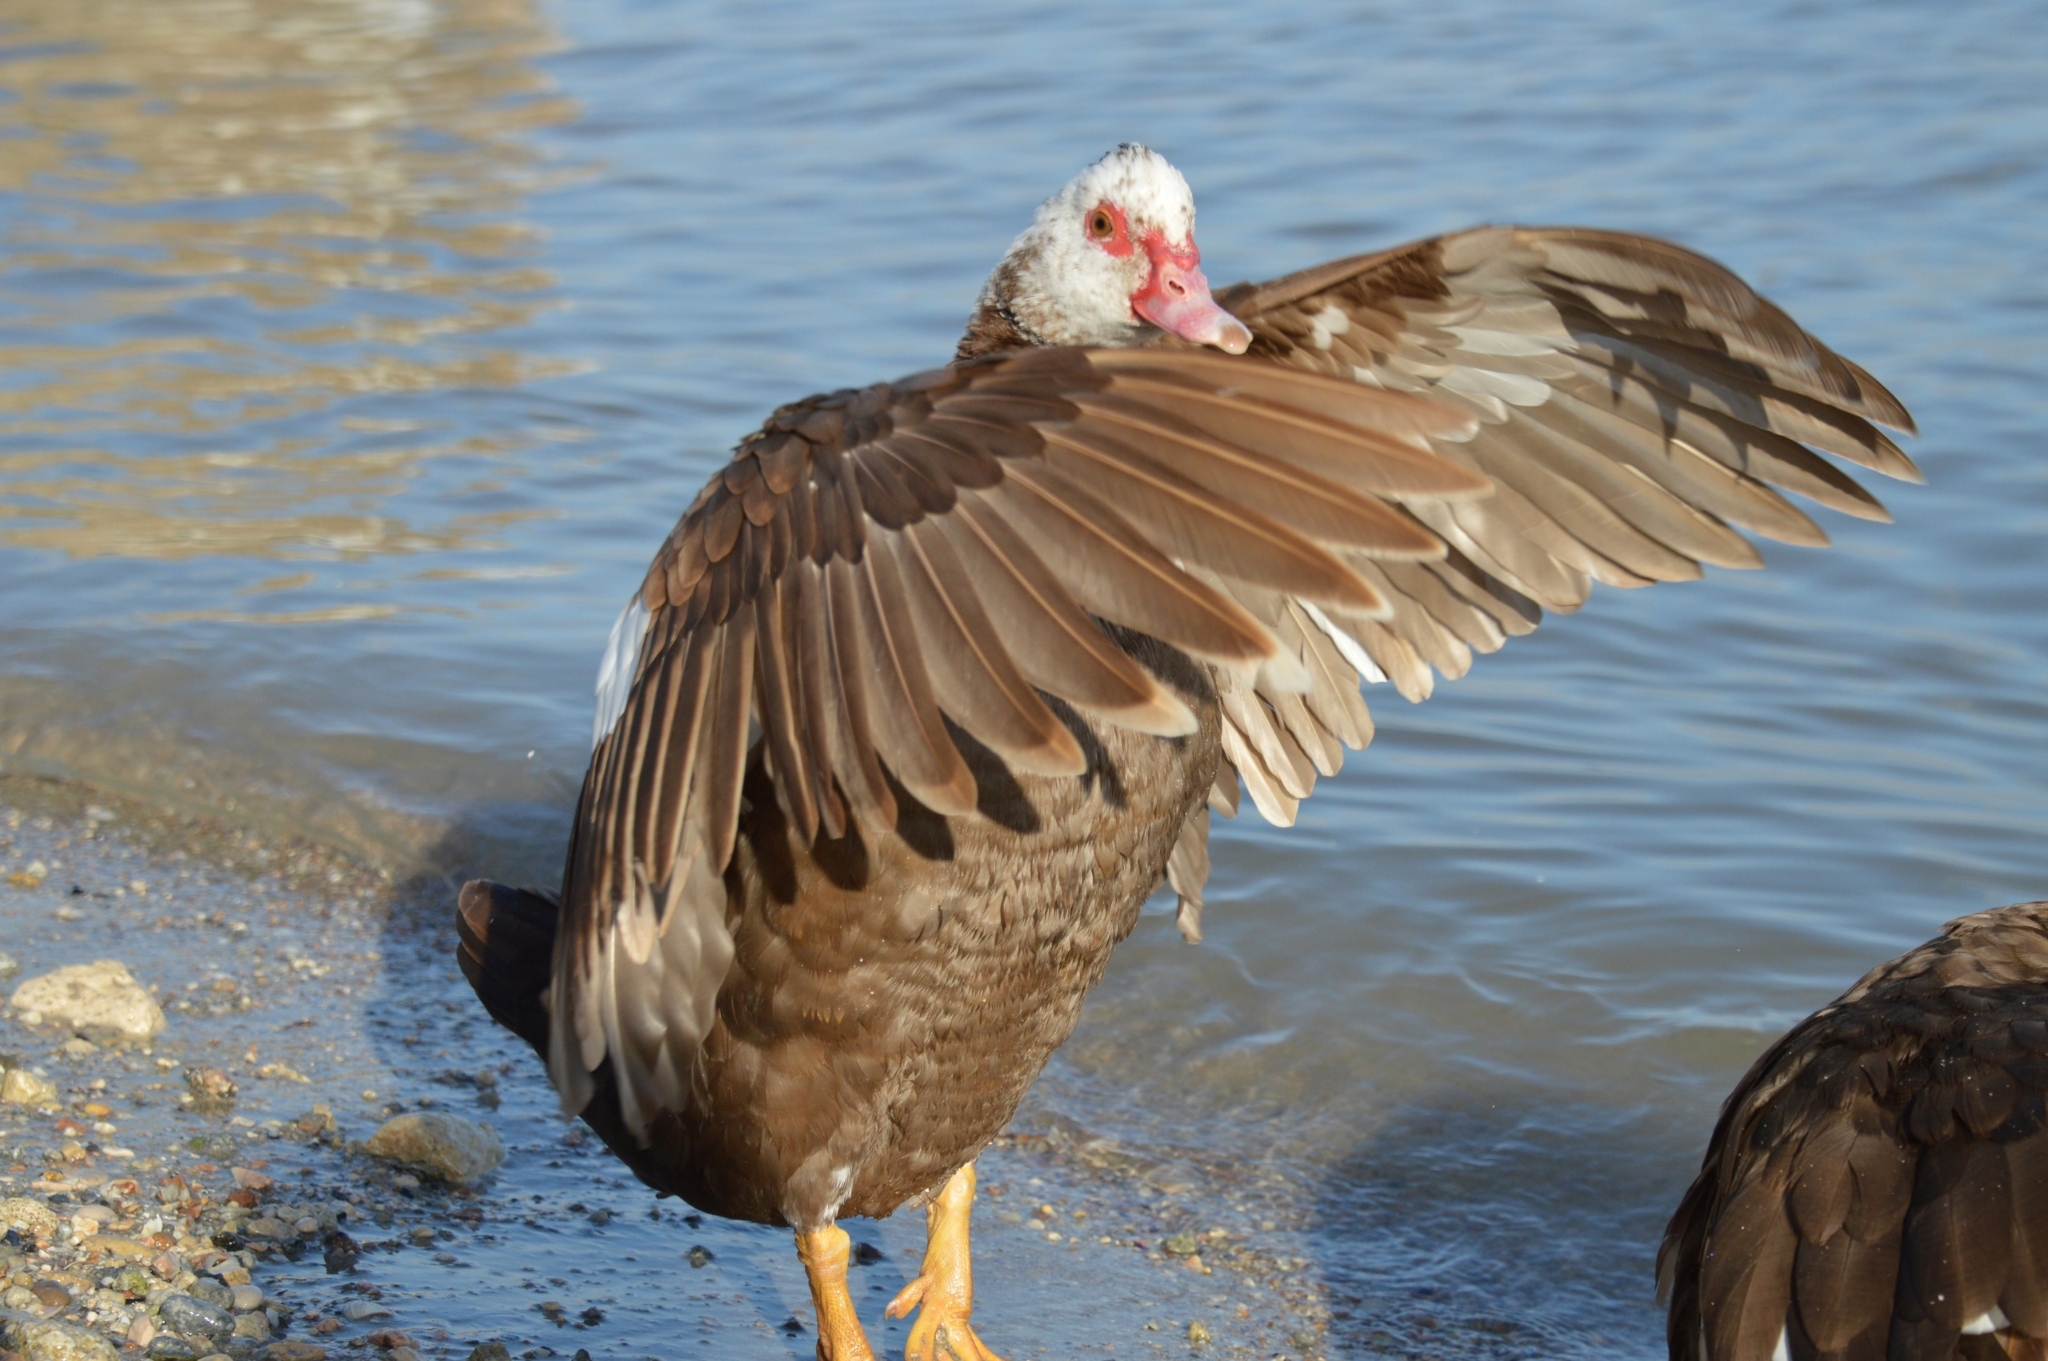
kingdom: Animalia
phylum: Chordata
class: Aves
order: Anseriformes
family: Anatidae
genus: Cairina
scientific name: Cairina moschata
